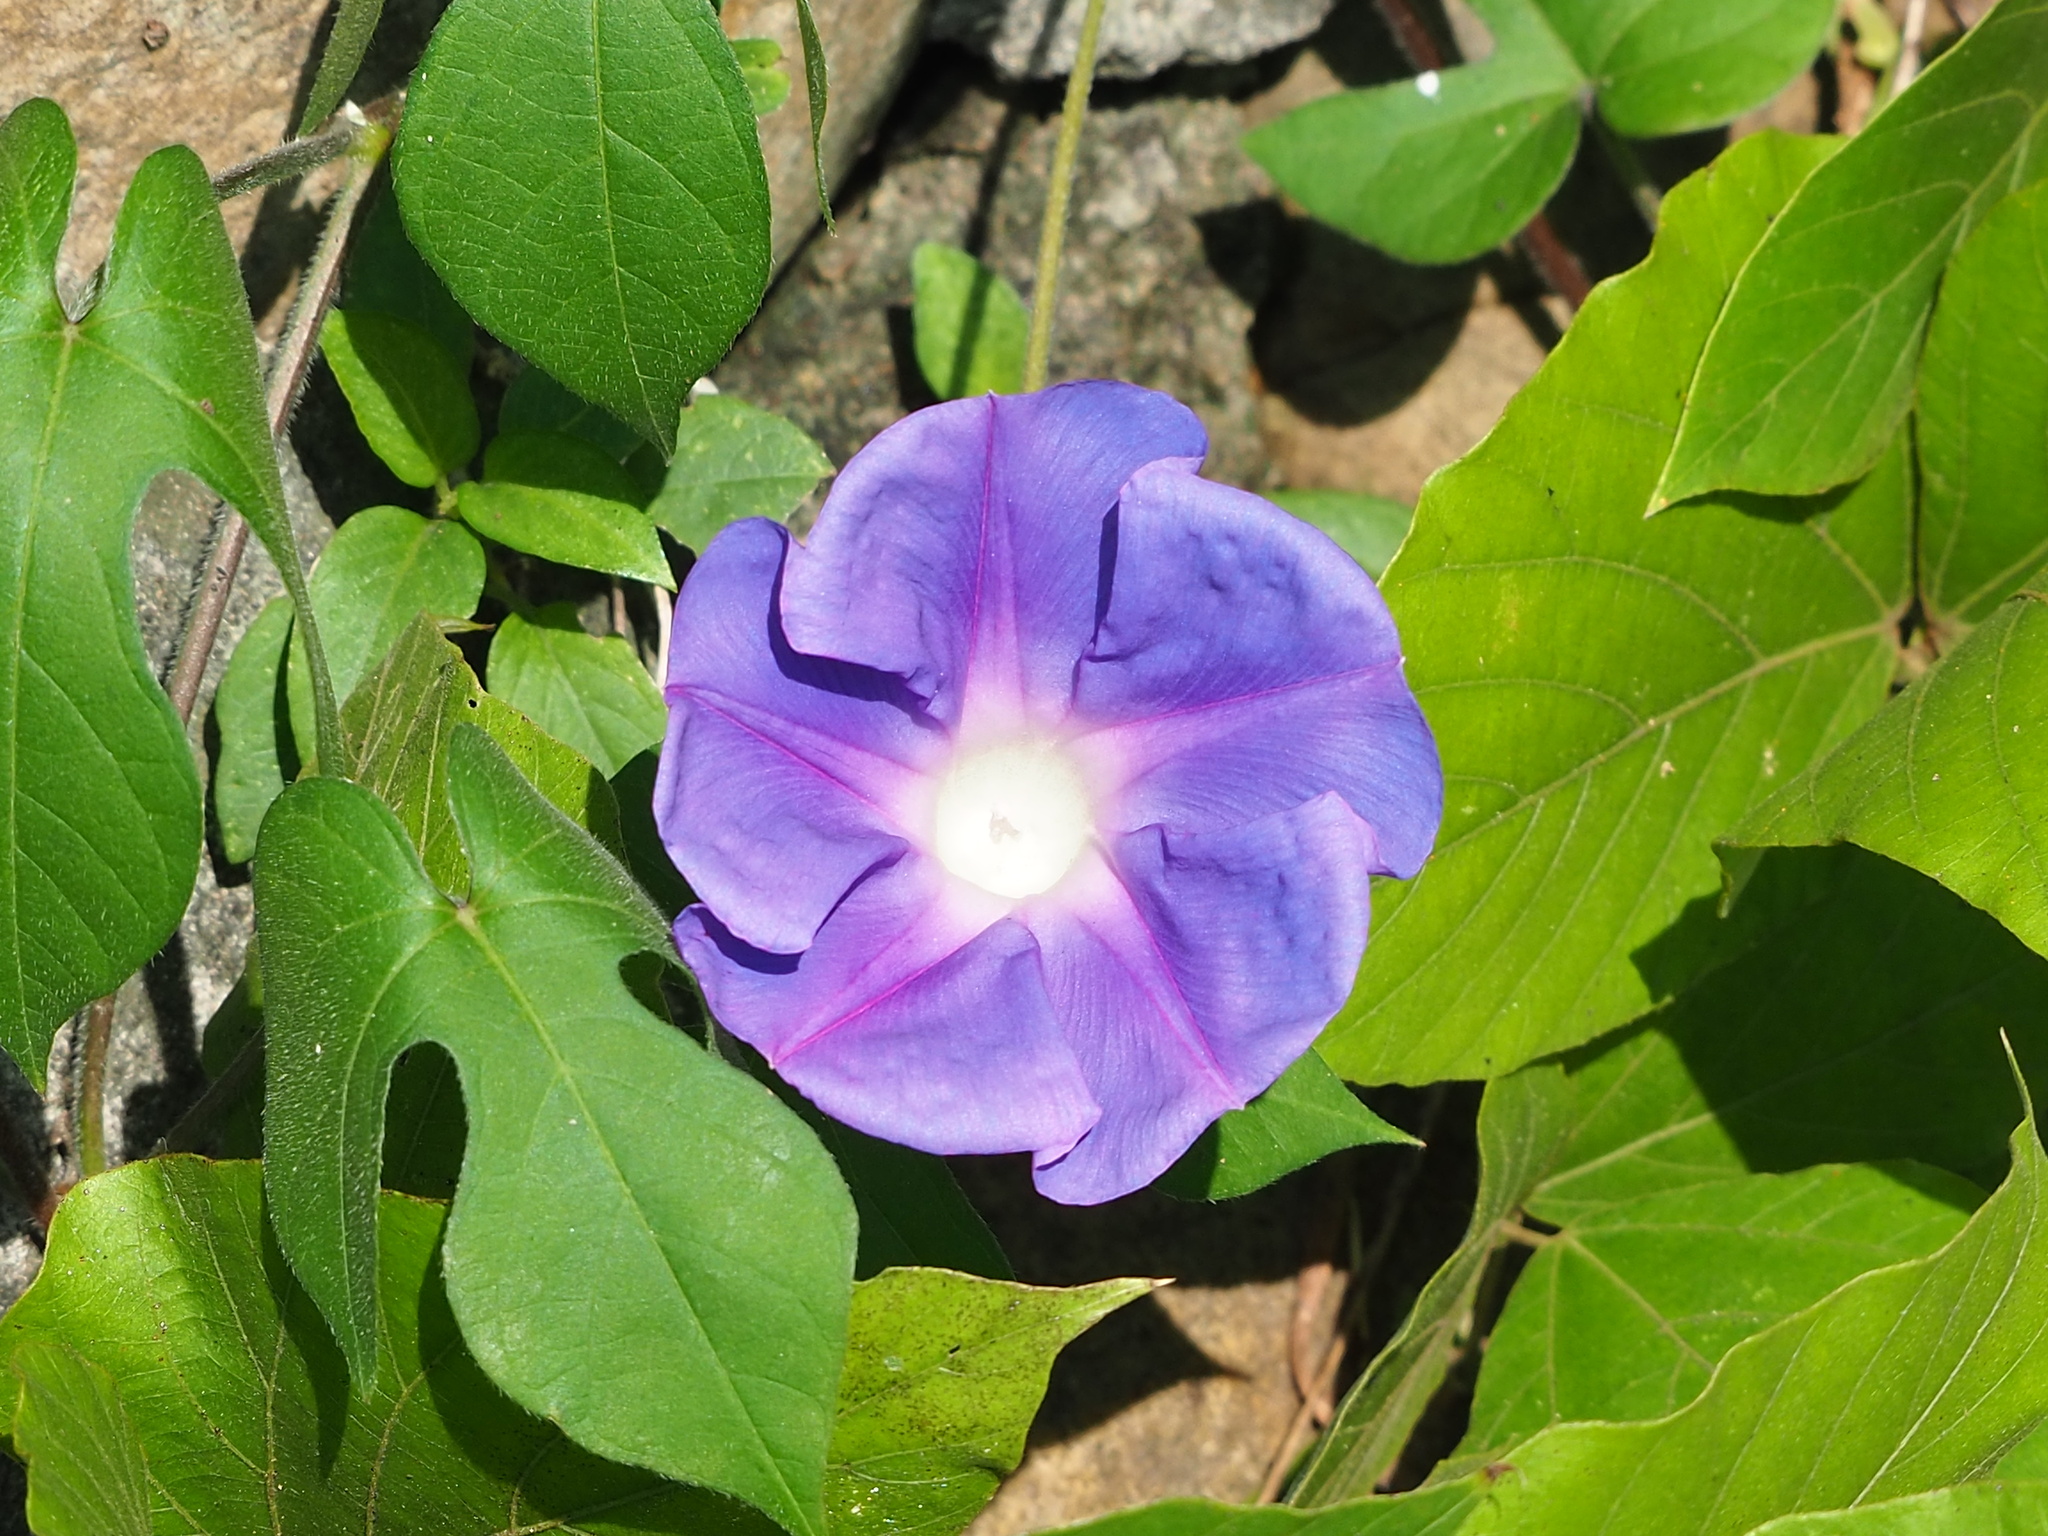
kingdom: Plantae
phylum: Tracheophyta
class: Magnoliopsida
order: Solanales
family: Convolvulaceae
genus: Ipomoea
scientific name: Ipomoea indica
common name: Blue dawnflower
